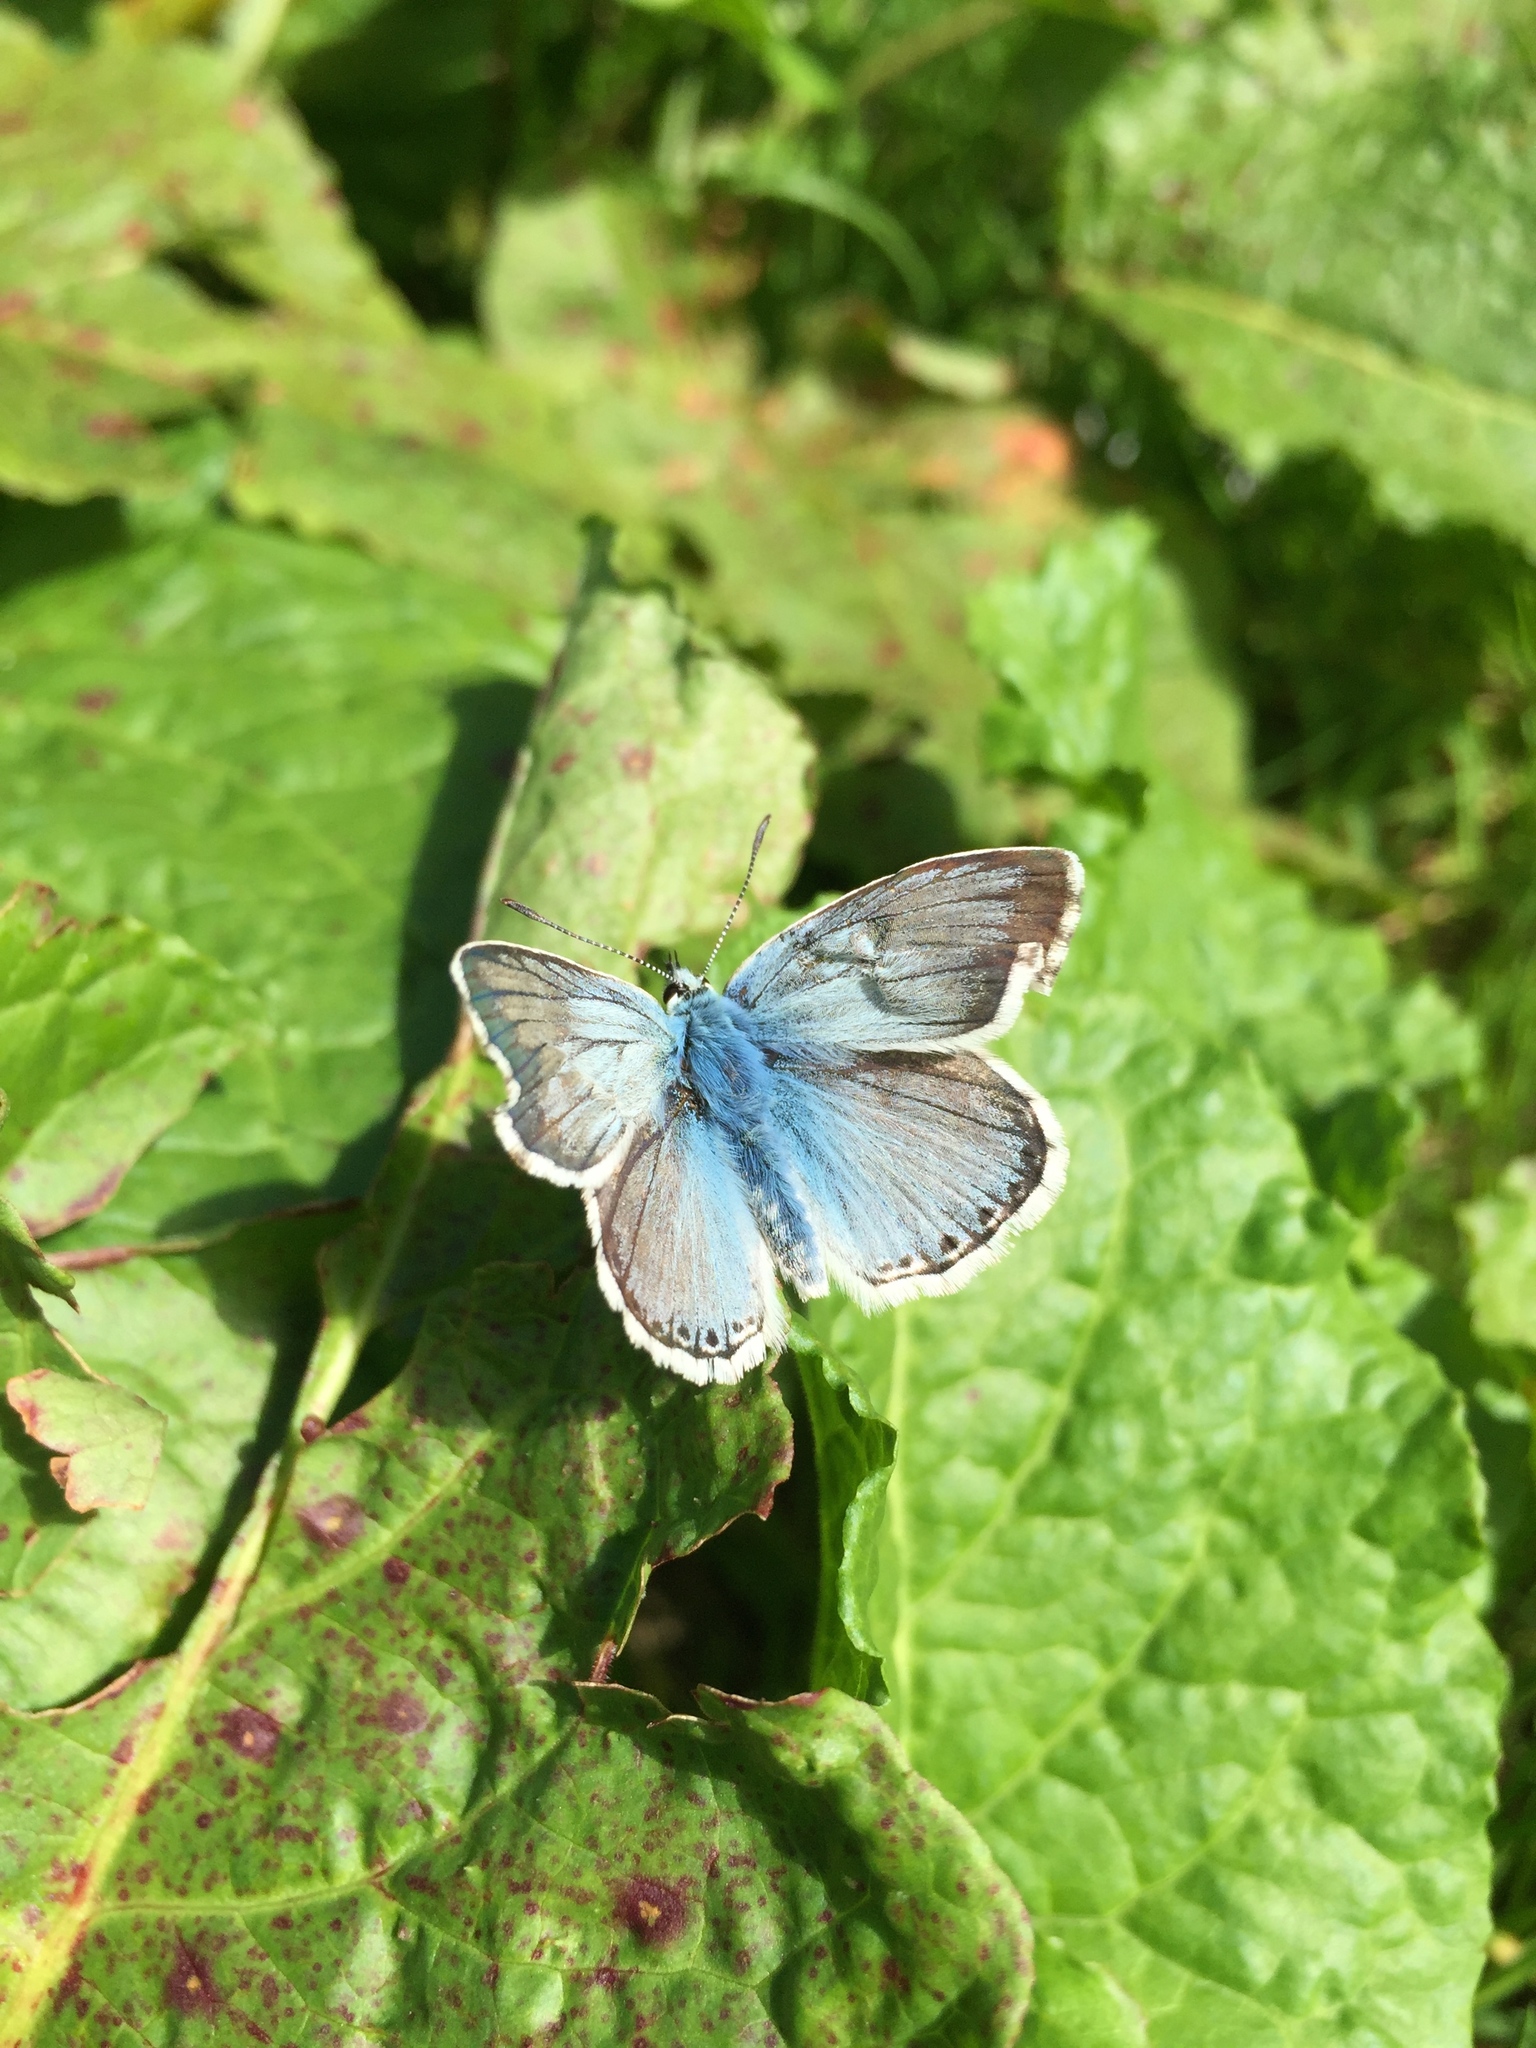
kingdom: Animalia
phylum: Arthropoda
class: Insecta
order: Lepidoptera
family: Lycaenidae
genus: Lysandra
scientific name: Lysandra coridon
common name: Chalkhill blue
